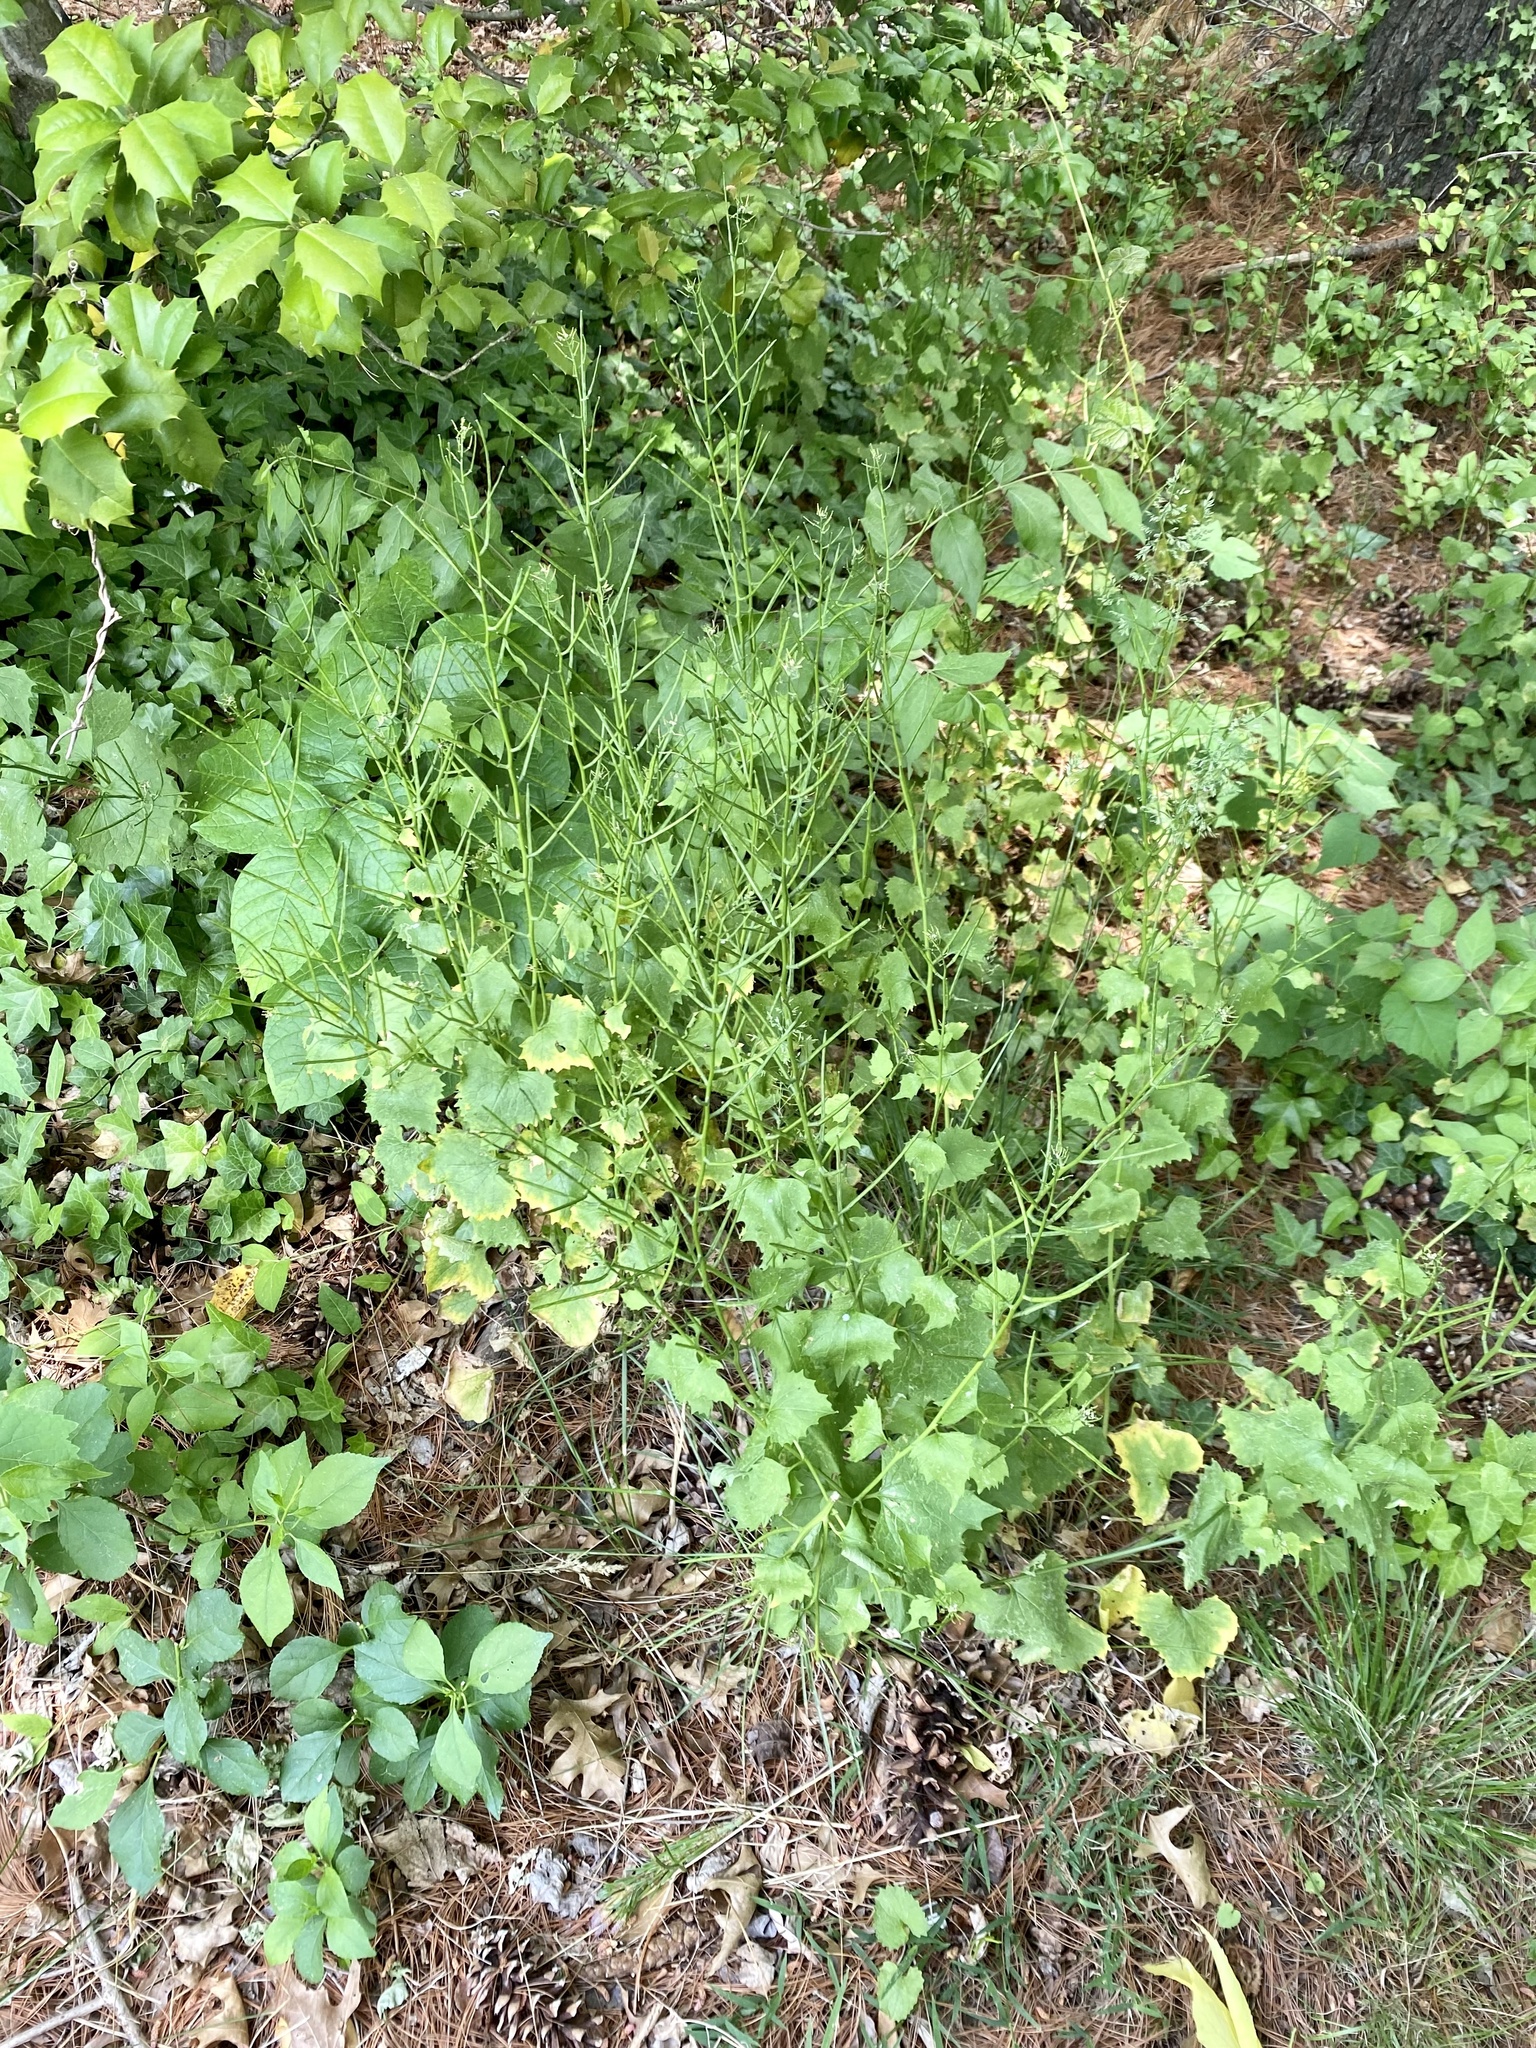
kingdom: Plantae
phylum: Tracheophyta
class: Magnoliopsida
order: Brassicales
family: Brassicaceae
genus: Alliaria
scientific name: Alliaria petiolata
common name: Garlic mustard
